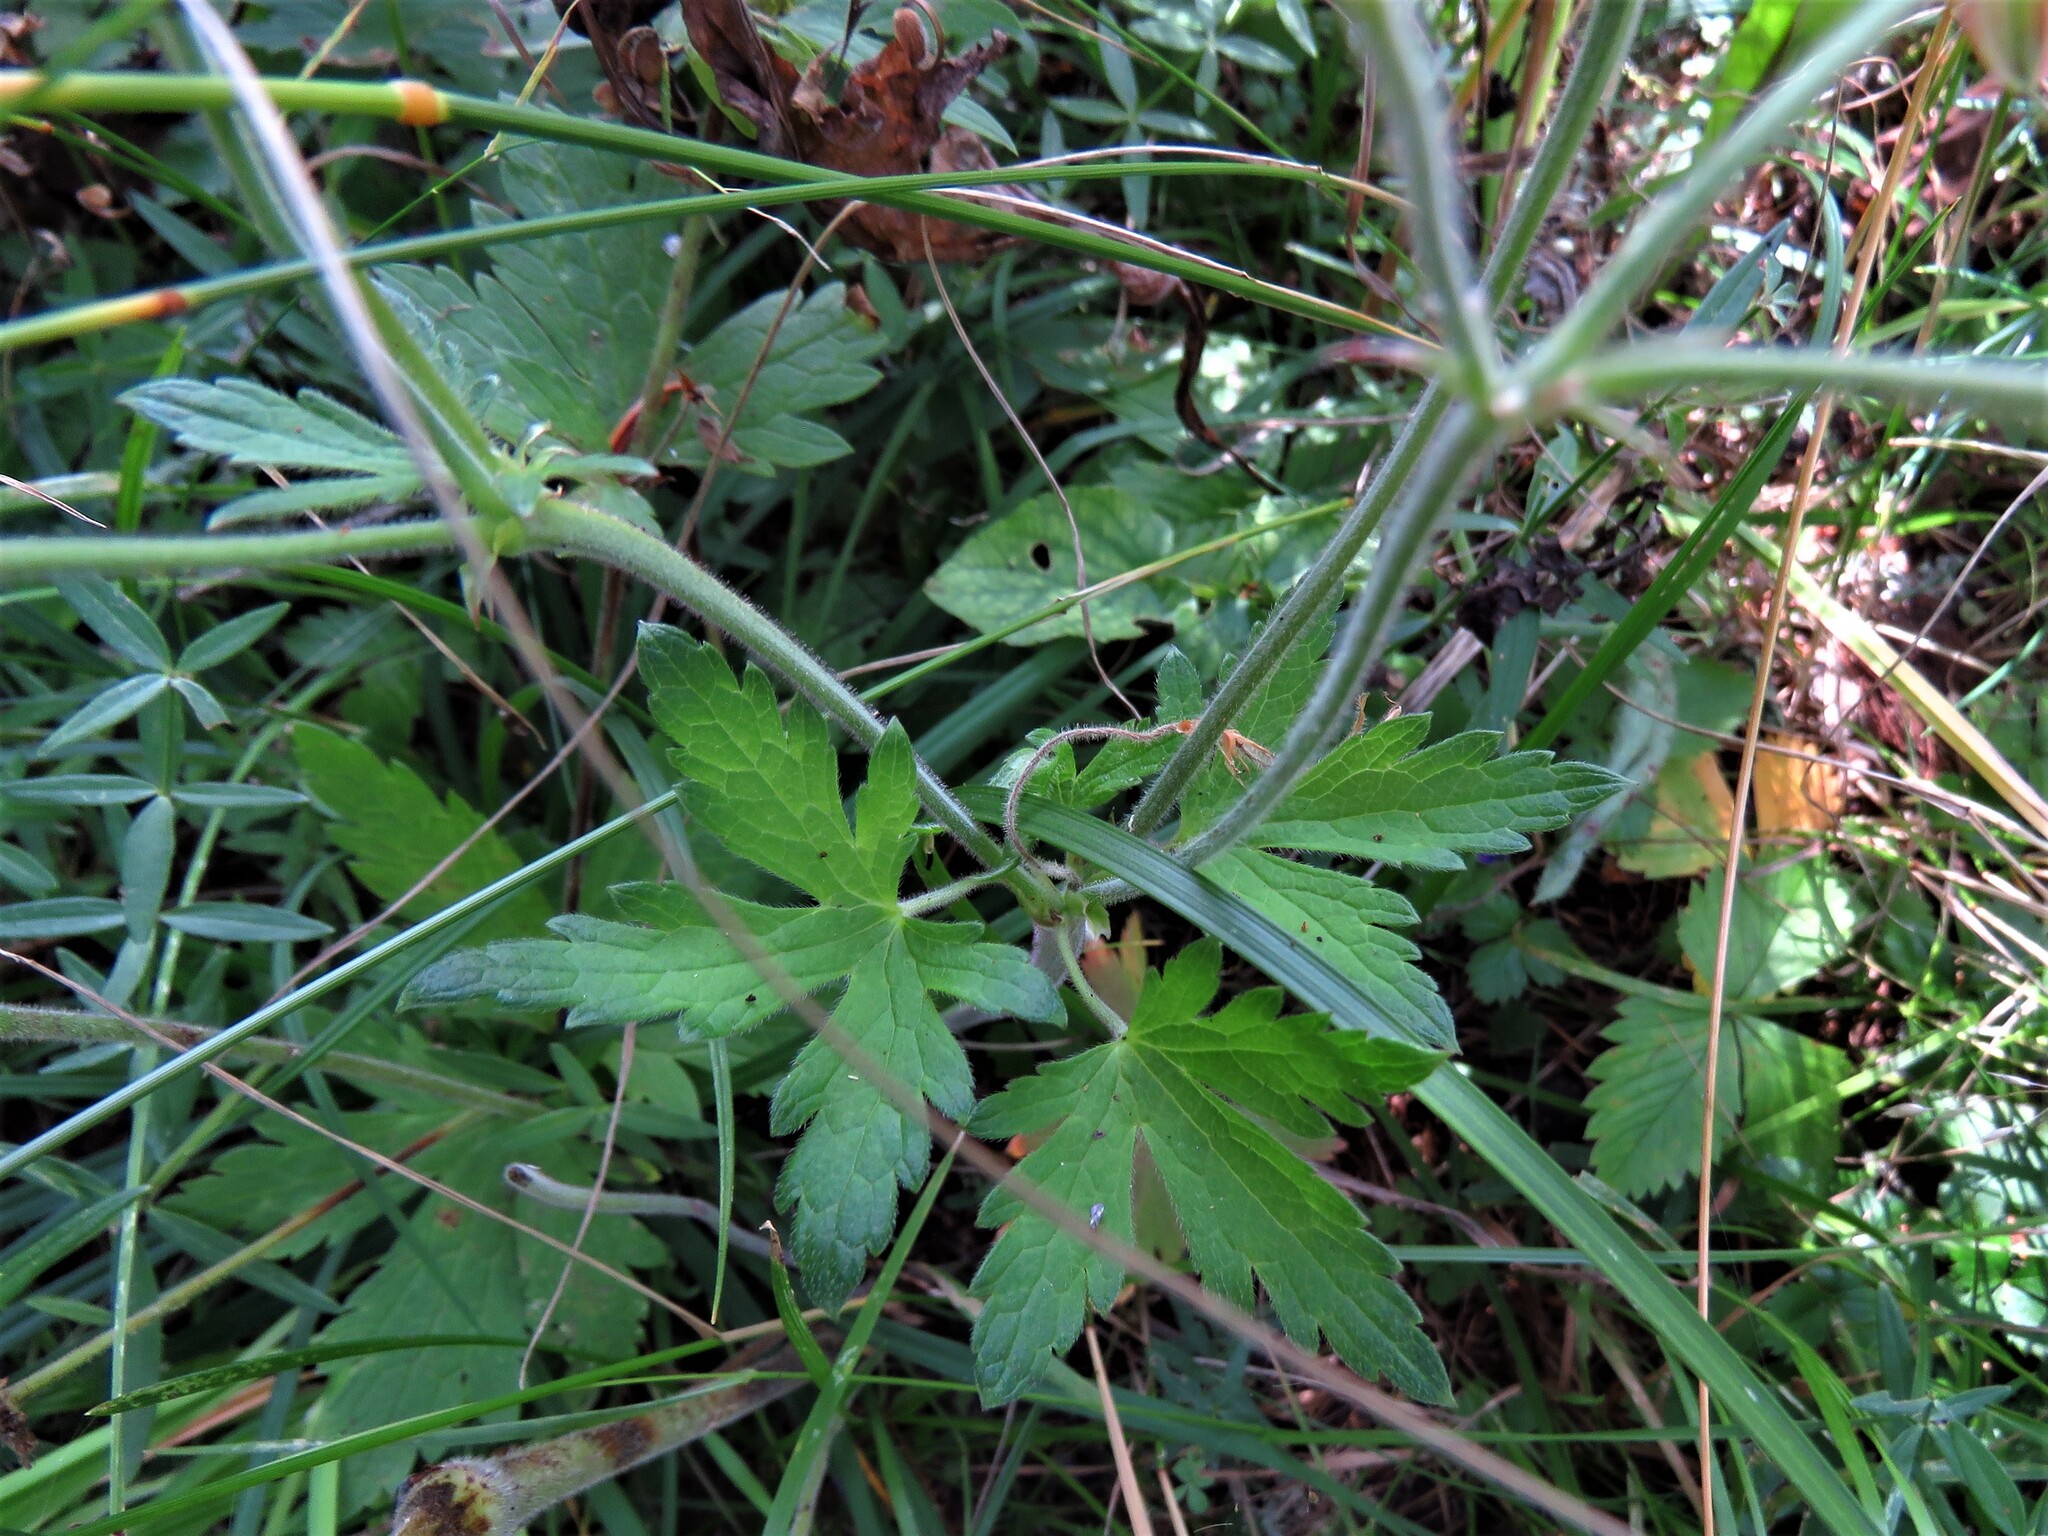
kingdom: Plantae
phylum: Tracheophyta
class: Magnoliopsida
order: Geraniales
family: Geraniaceae
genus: Geranium
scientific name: Geranium sylvaticum
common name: Wood crane's-bill
